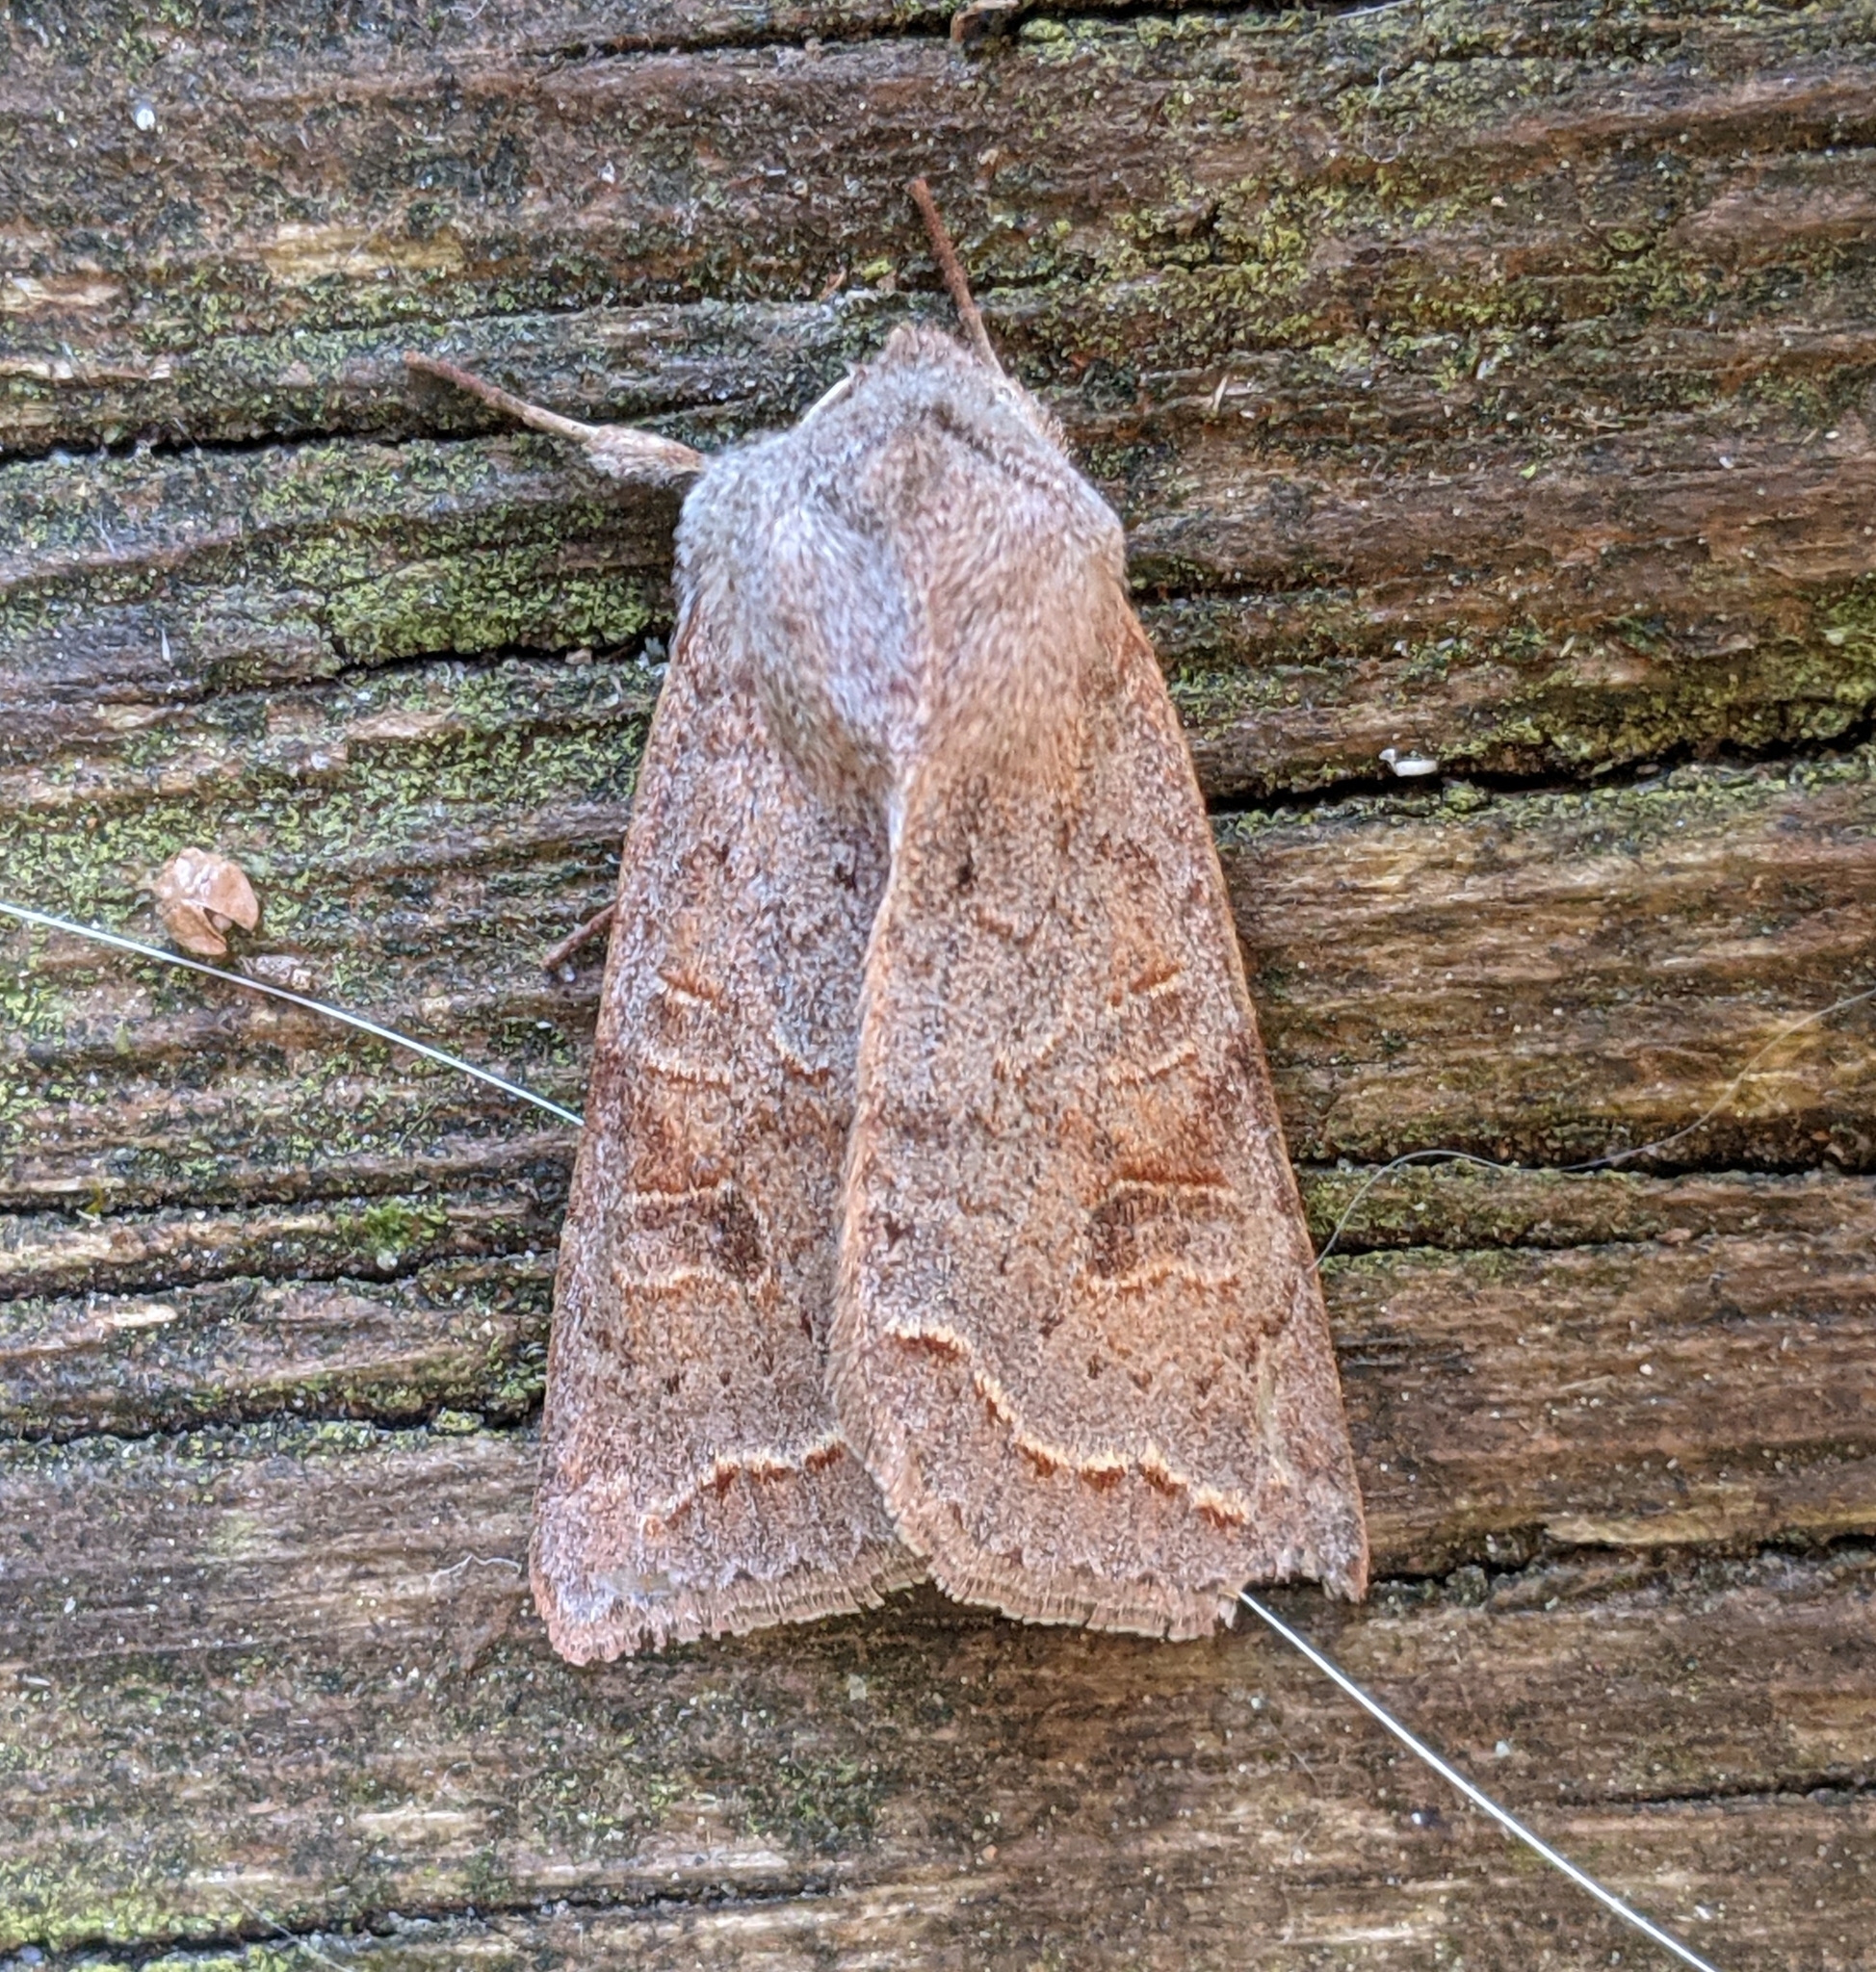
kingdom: Animalia
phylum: Arthropoda
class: Insecta
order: Lepidoptera
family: Noctuidae
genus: Orthosia
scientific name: Orthosia revicta
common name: Rusty whitesided caterpillar
